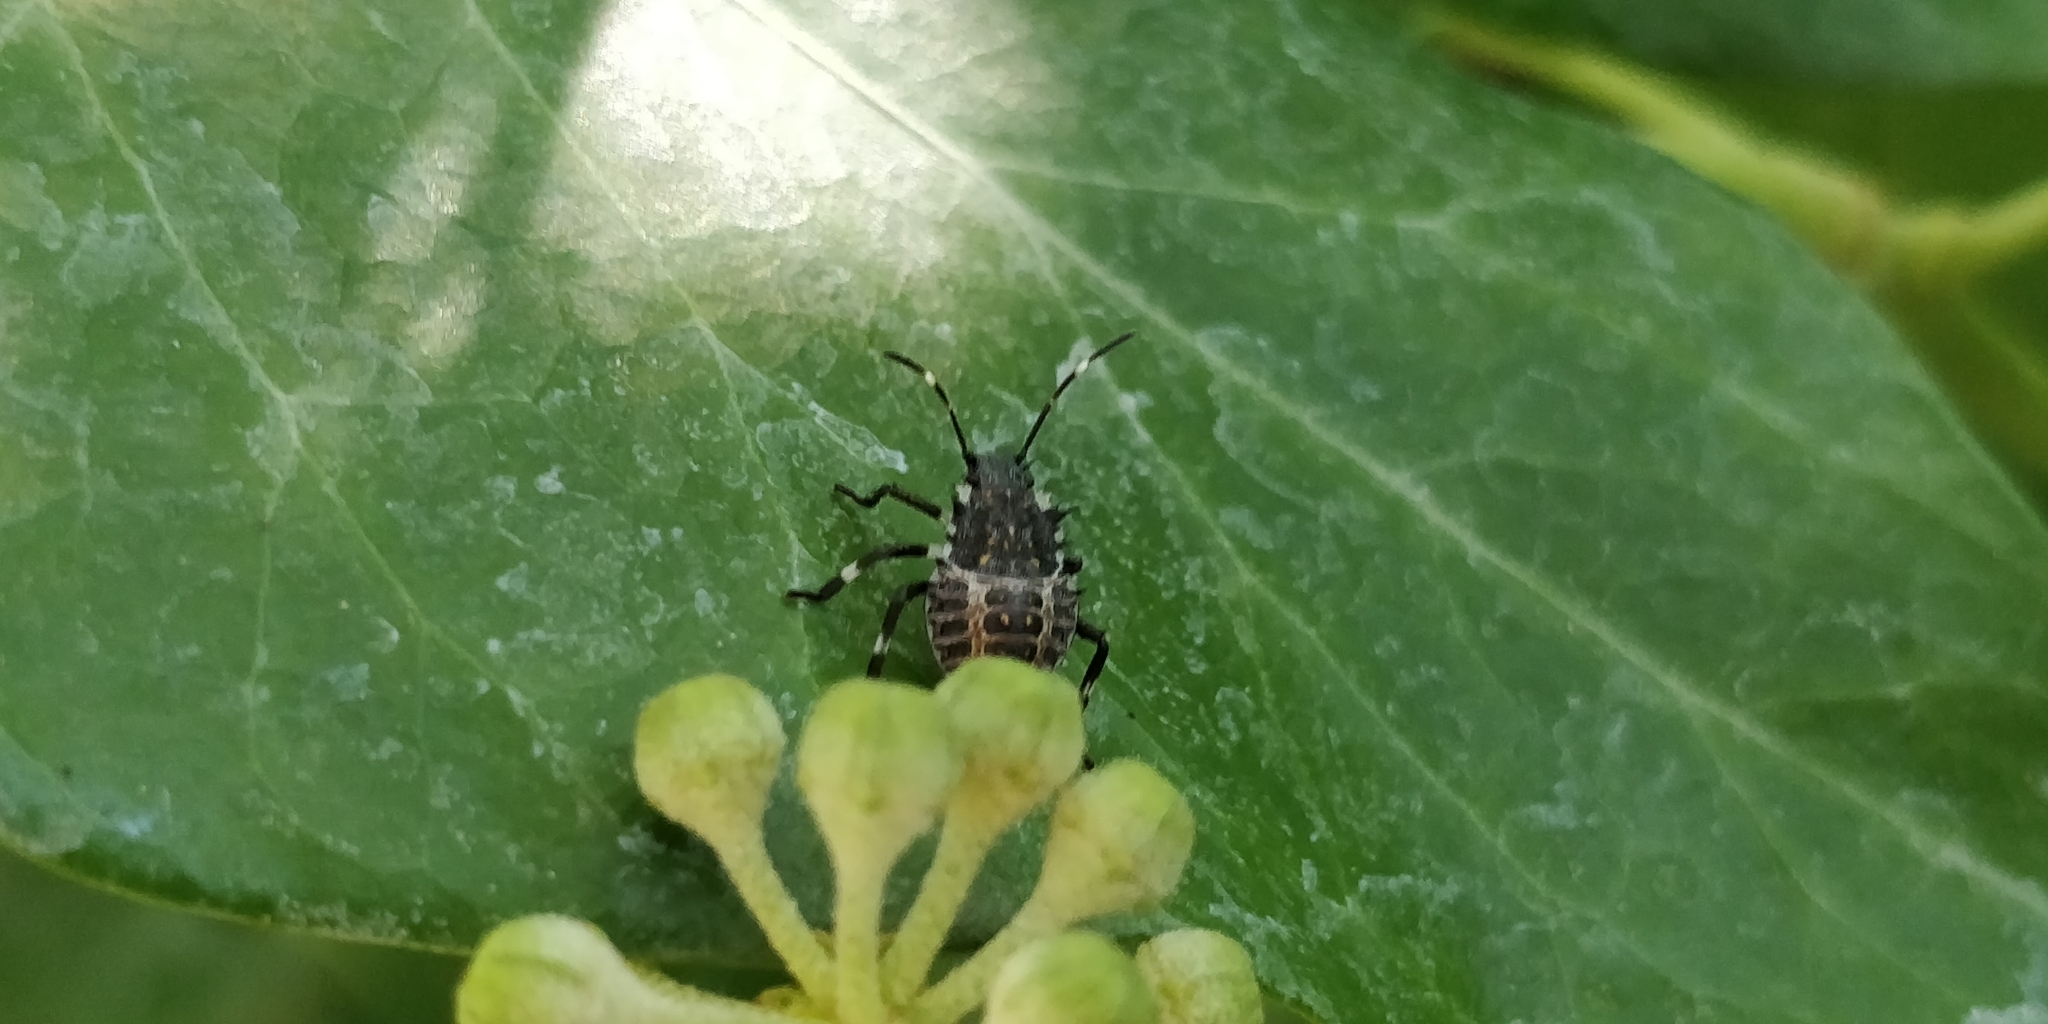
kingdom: Animalia
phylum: Arthropoda
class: Insecta
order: Hemiptera
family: Pentatomidae
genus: Halyomorpha
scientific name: Halyomorpha halys
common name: Brown marmorated stink bug
